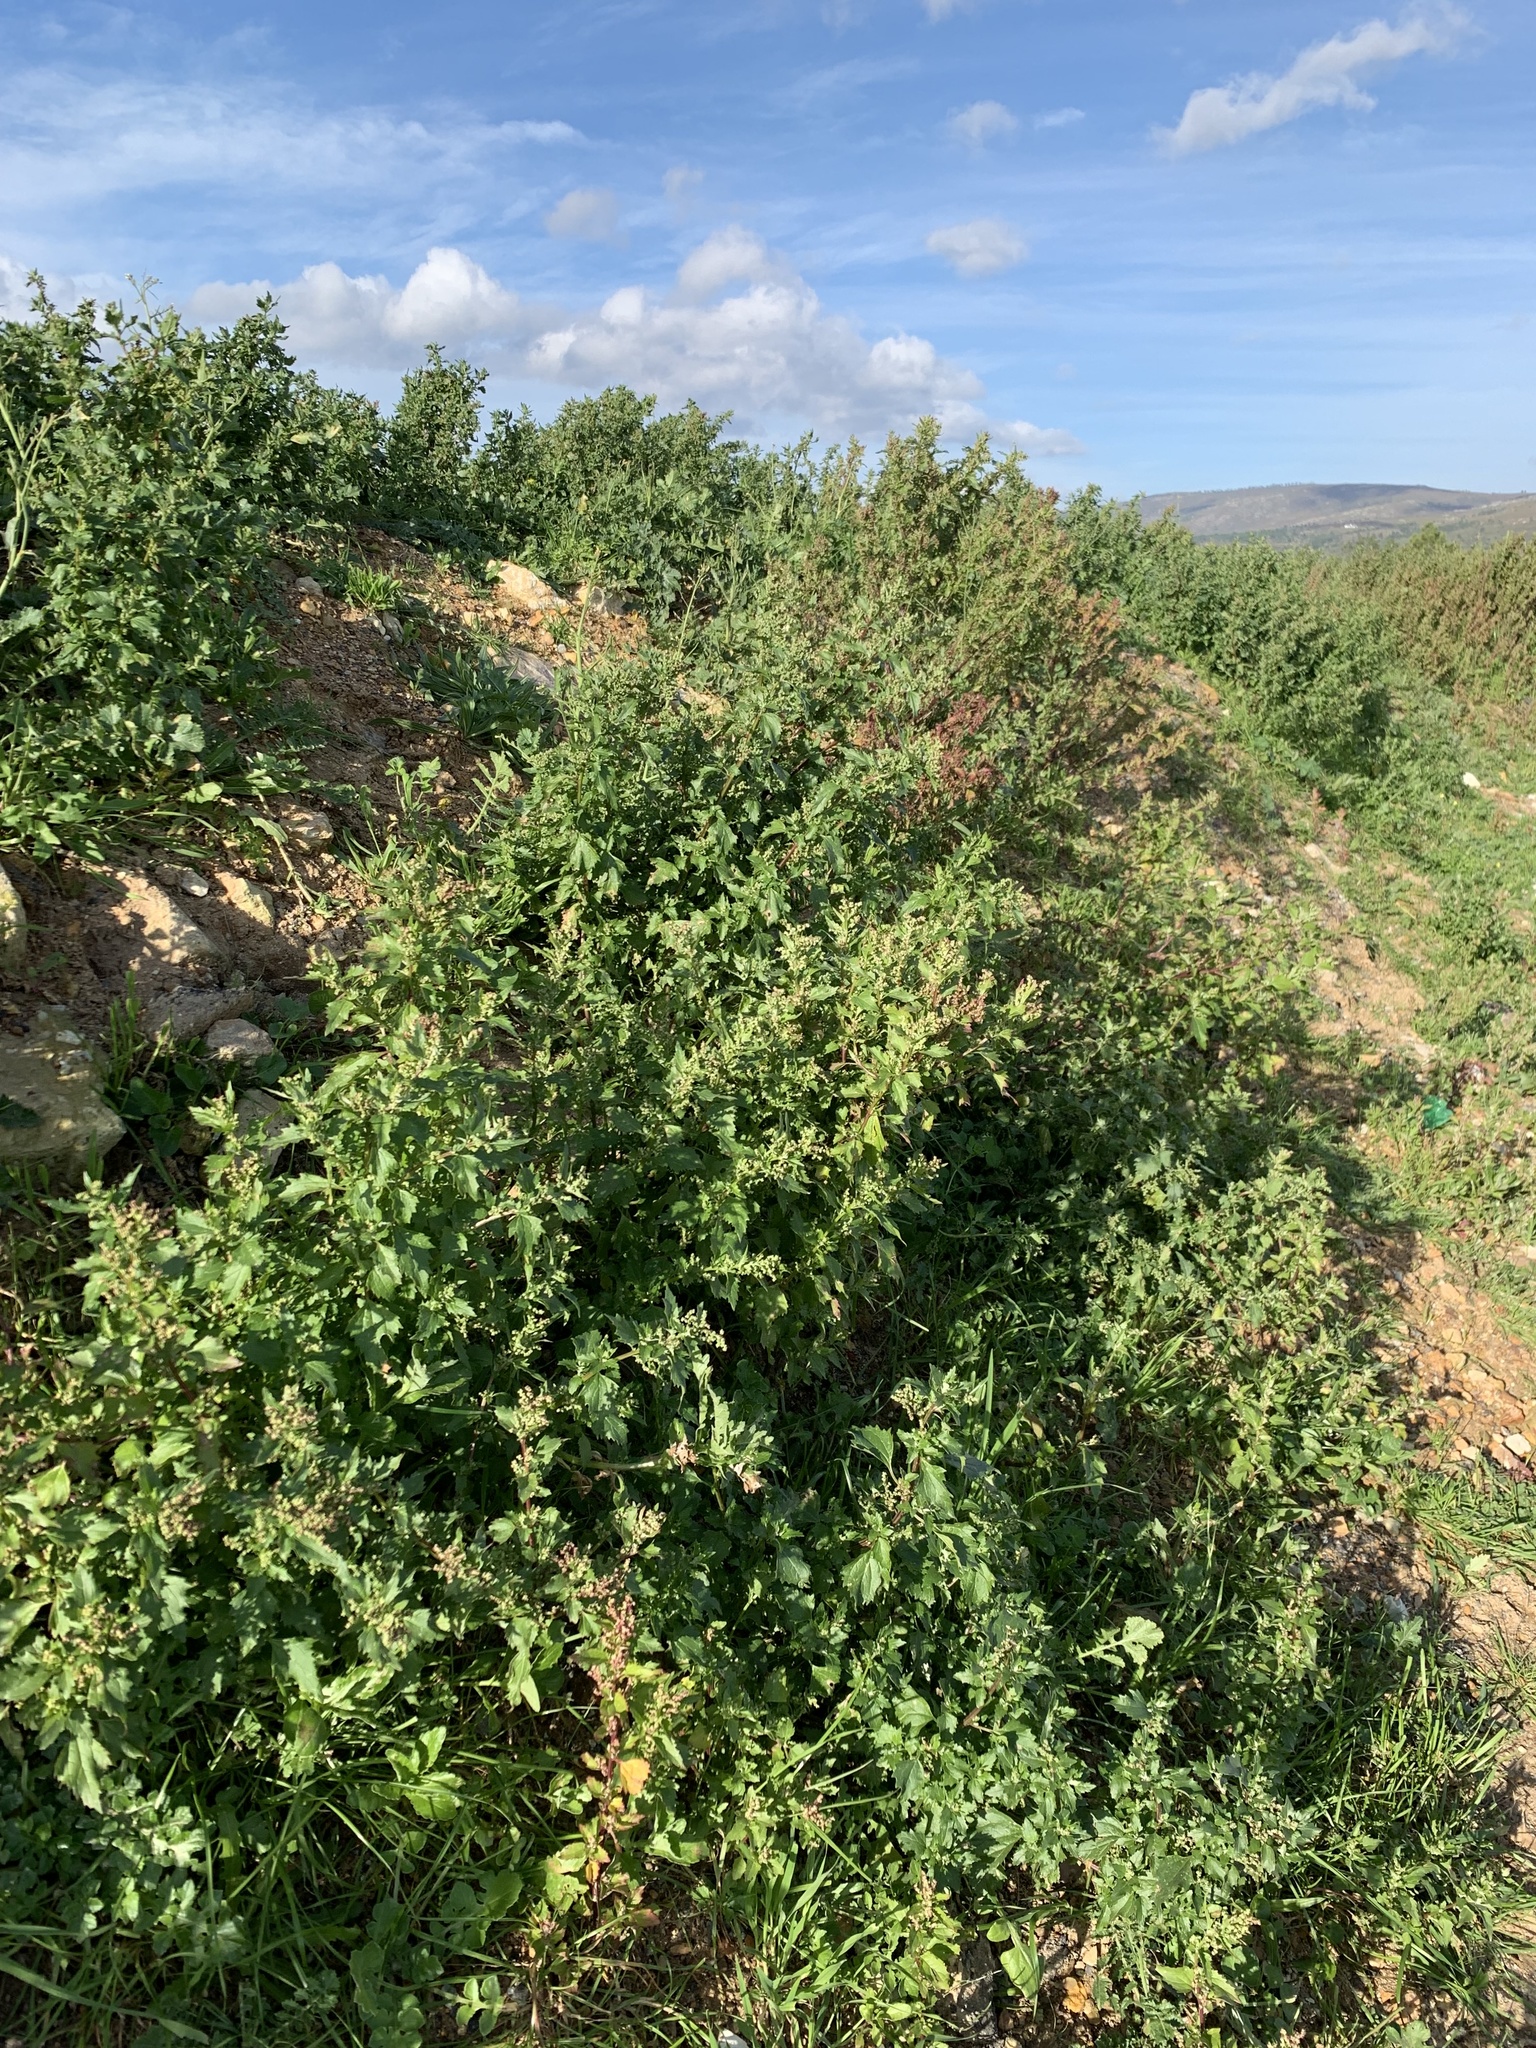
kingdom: Plantae
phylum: Tracheophyta
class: Magnoliopsida
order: Caryophyllales
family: Amaranthaceae
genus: Chenopodiastrum
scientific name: Chenopodiastrum murale
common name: Sowbane
